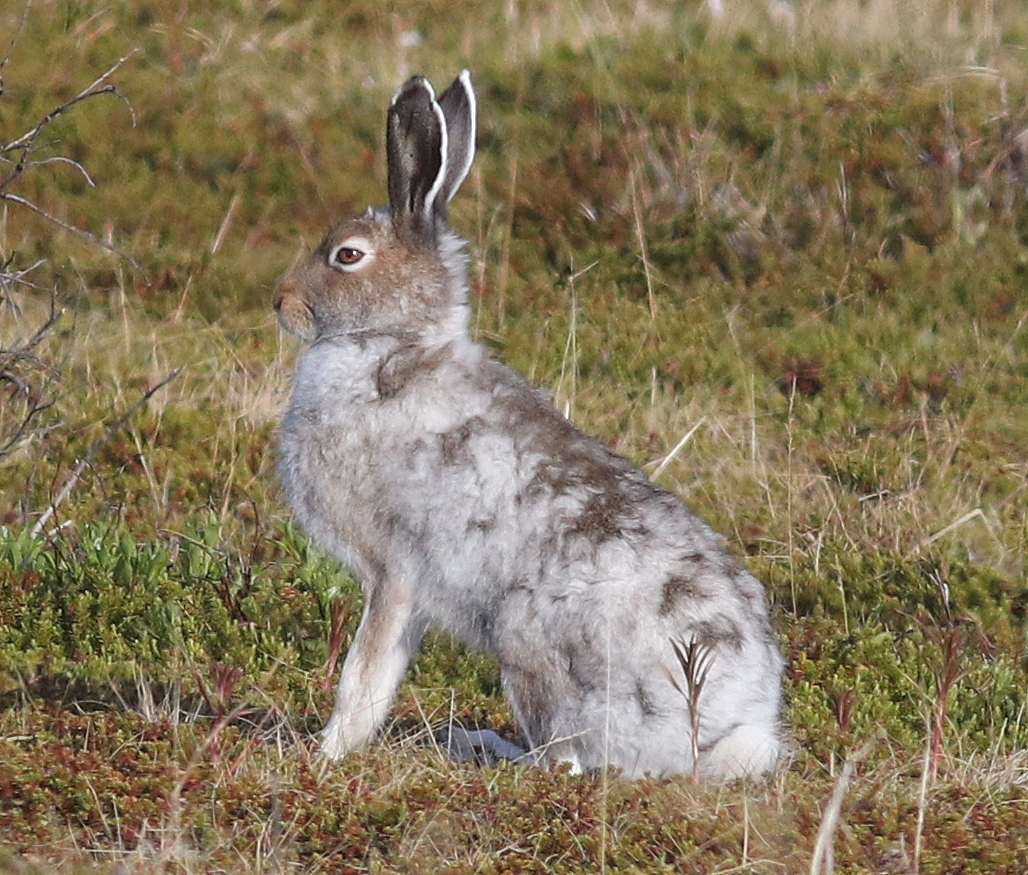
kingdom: Animalia
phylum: Chordata
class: Mammalia
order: Lagomorpha
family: Leporidae
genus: Lepus
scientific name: Lepus timidus
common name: Mountain hare
